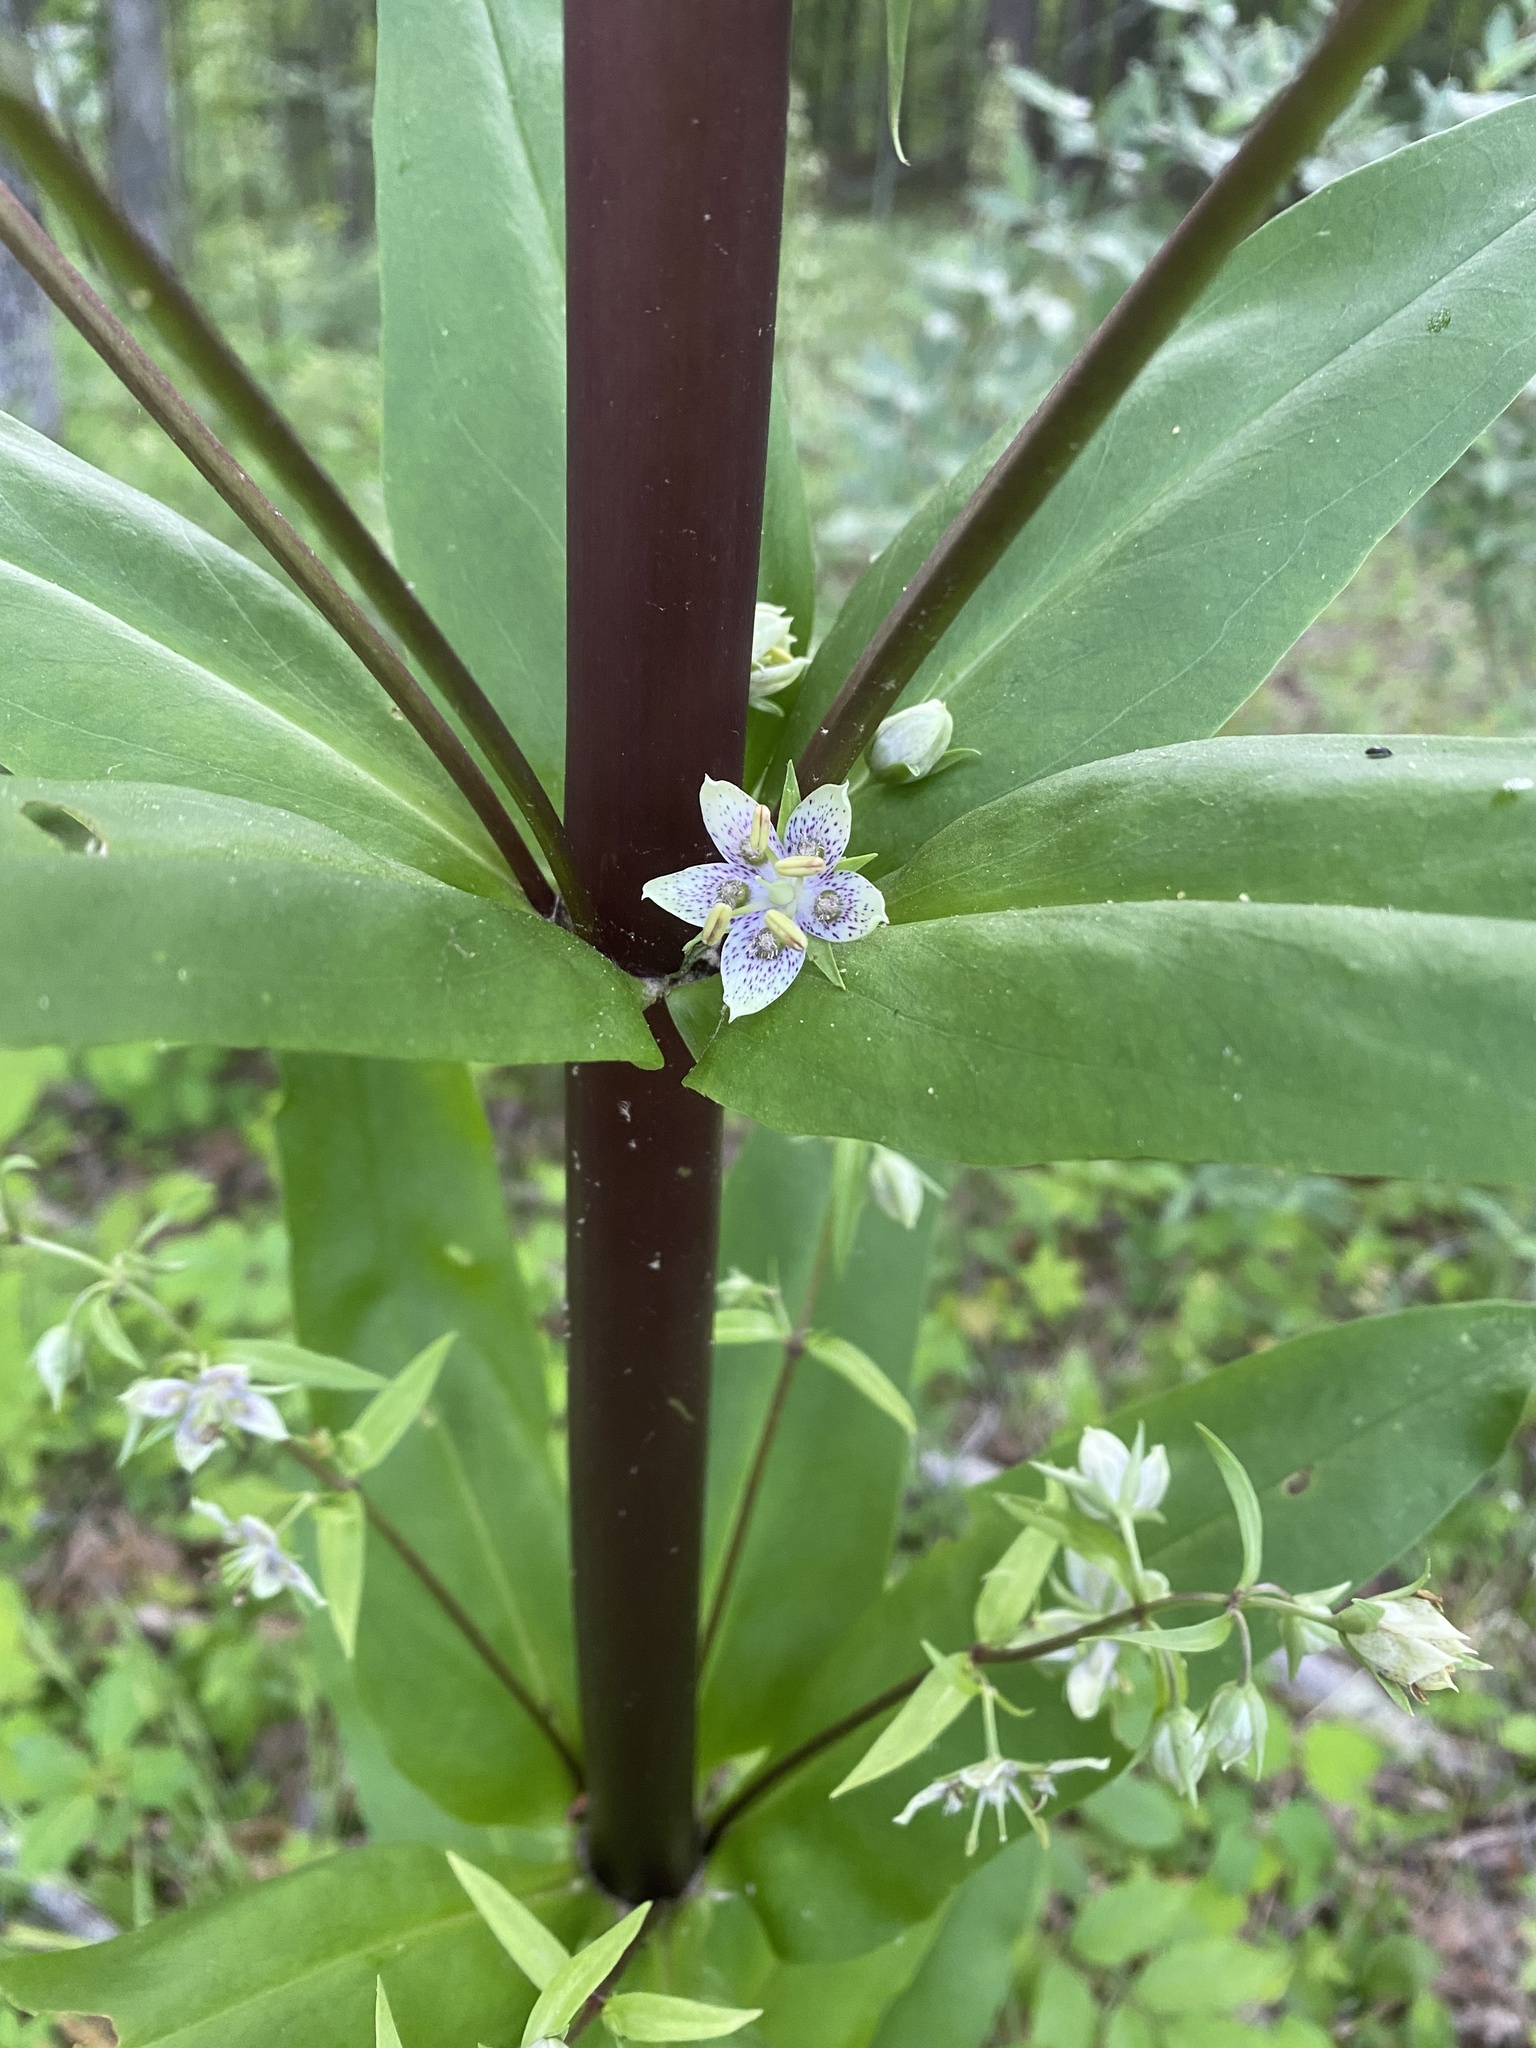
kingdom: Plantae
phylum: Tracheophyta
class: Magnoliopsida
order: Gentianales
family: Gentianaceae
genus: Frasera
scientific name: Frasera caroliniensis
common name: American columbo
